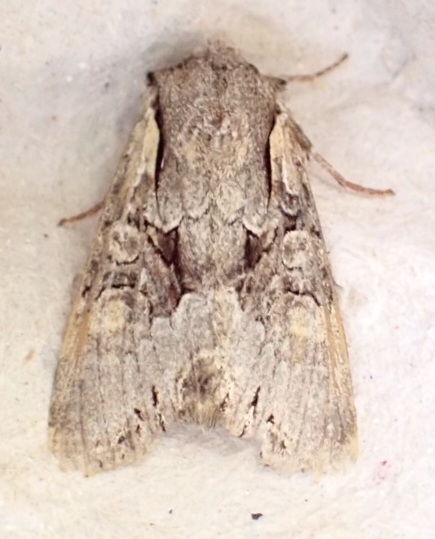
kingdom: Animalia
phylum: Arthropoda
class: Insecta
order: Lepidoptera
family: Noctuidae
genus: Lacanobia
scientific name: Lacanobia w-latinum
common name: Light brocade
